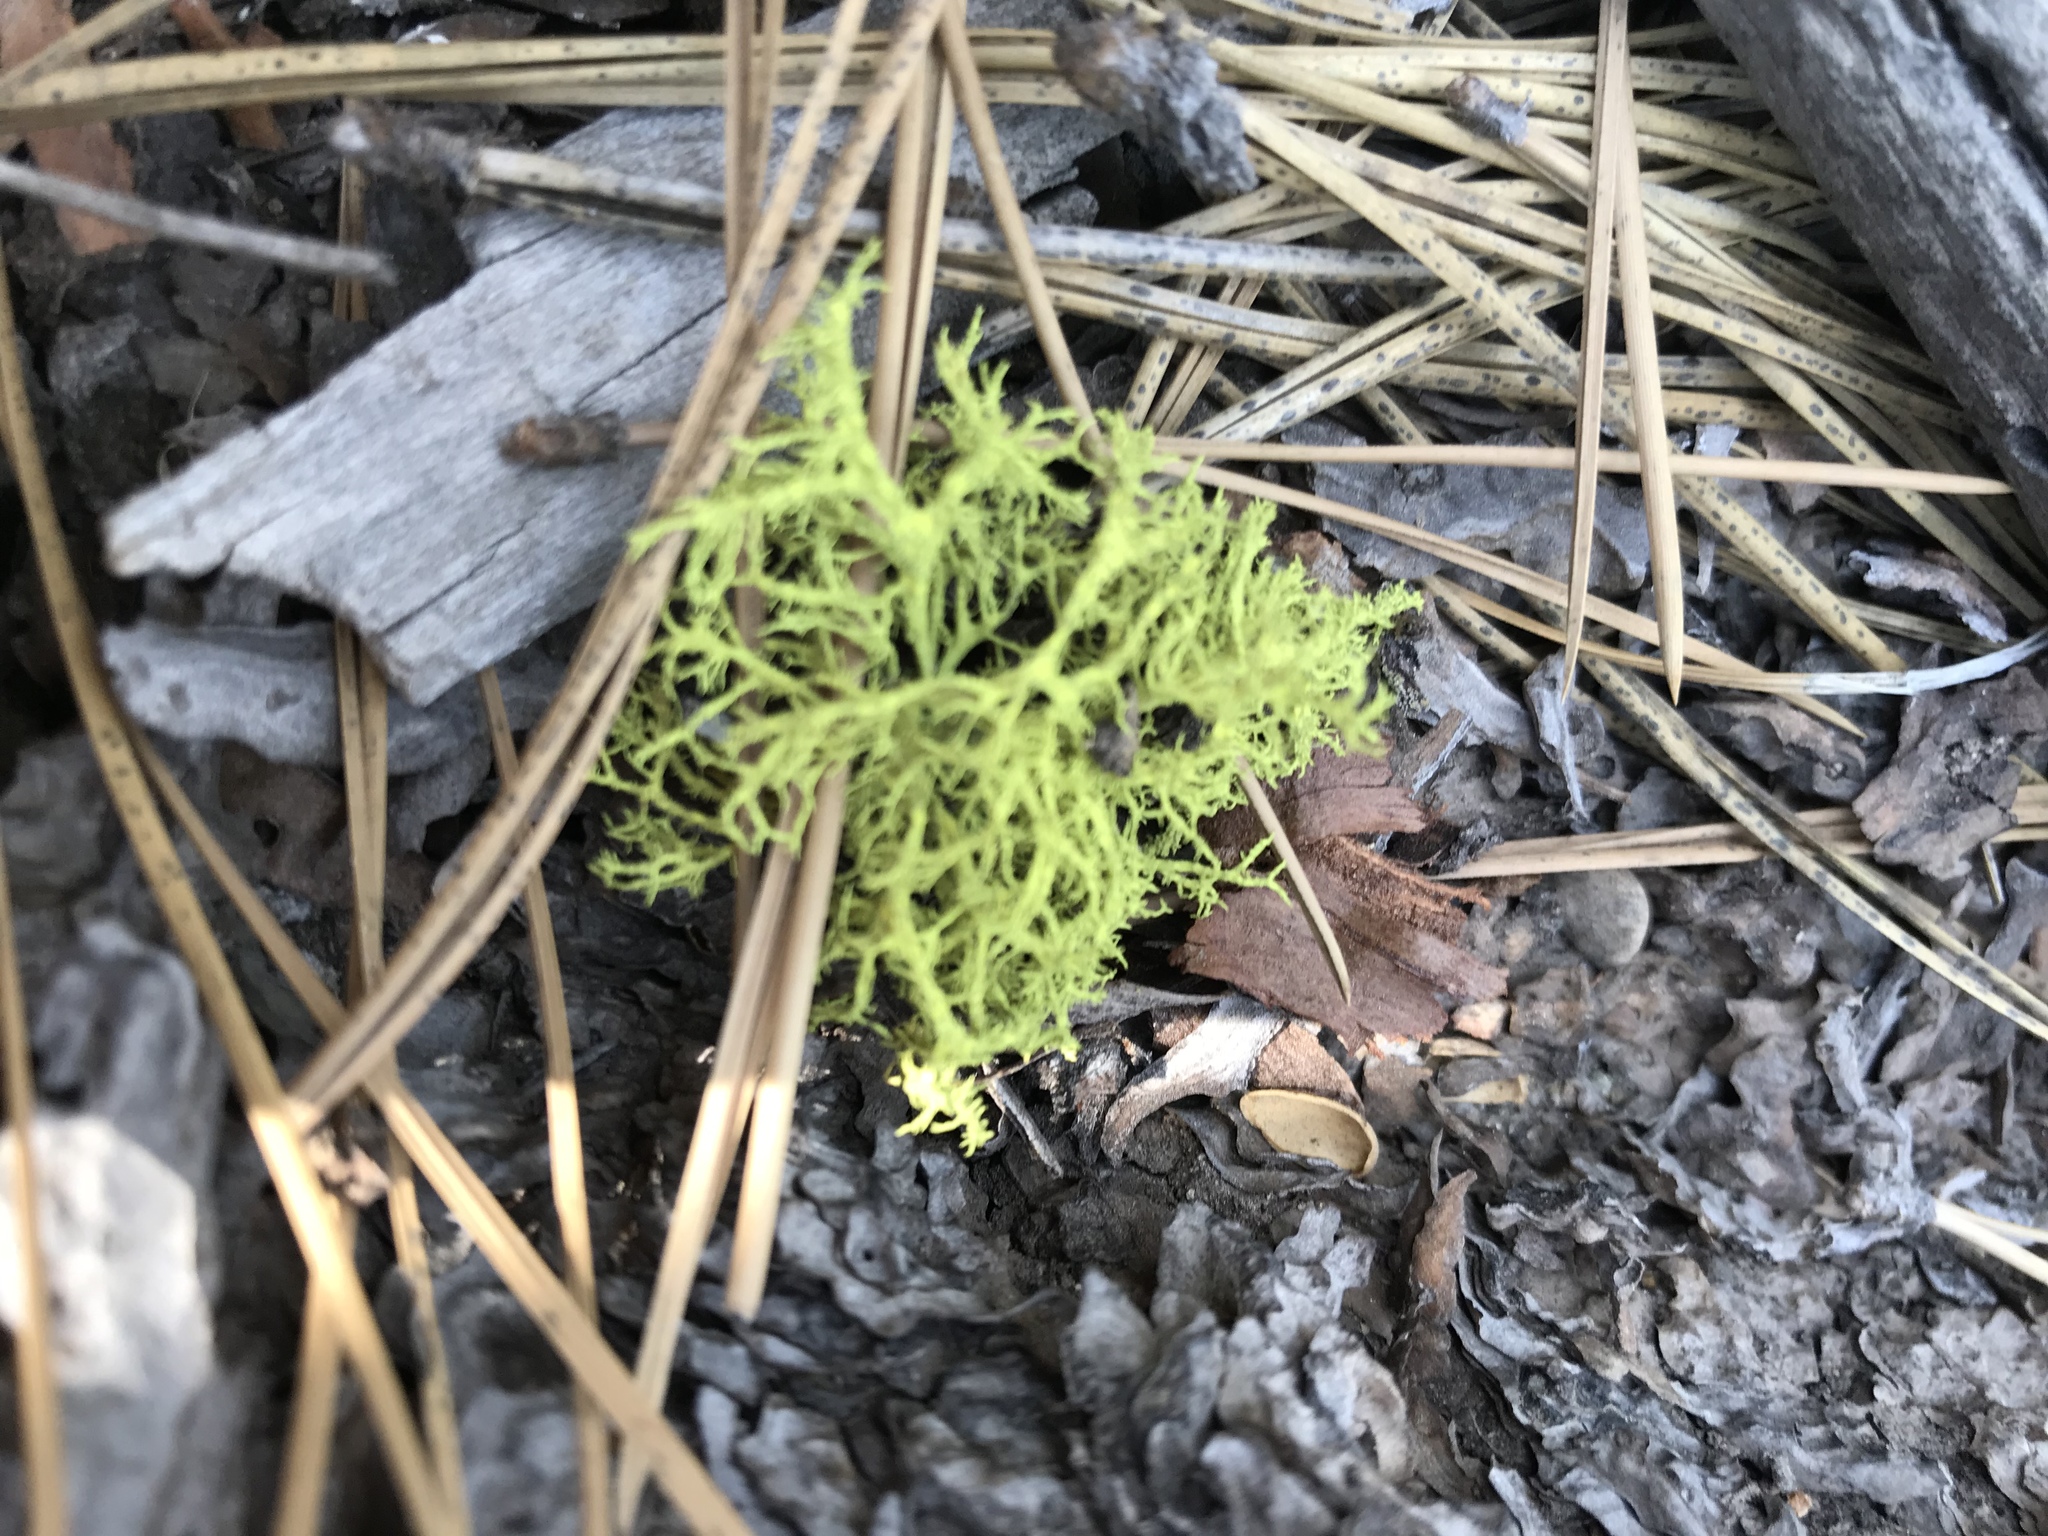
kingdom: Fungi
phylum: Ascomycota
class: Lecanoromycetes
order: Lecanorales
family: Parmeliaceae
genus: Letharia
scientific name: Letharia vulpina
